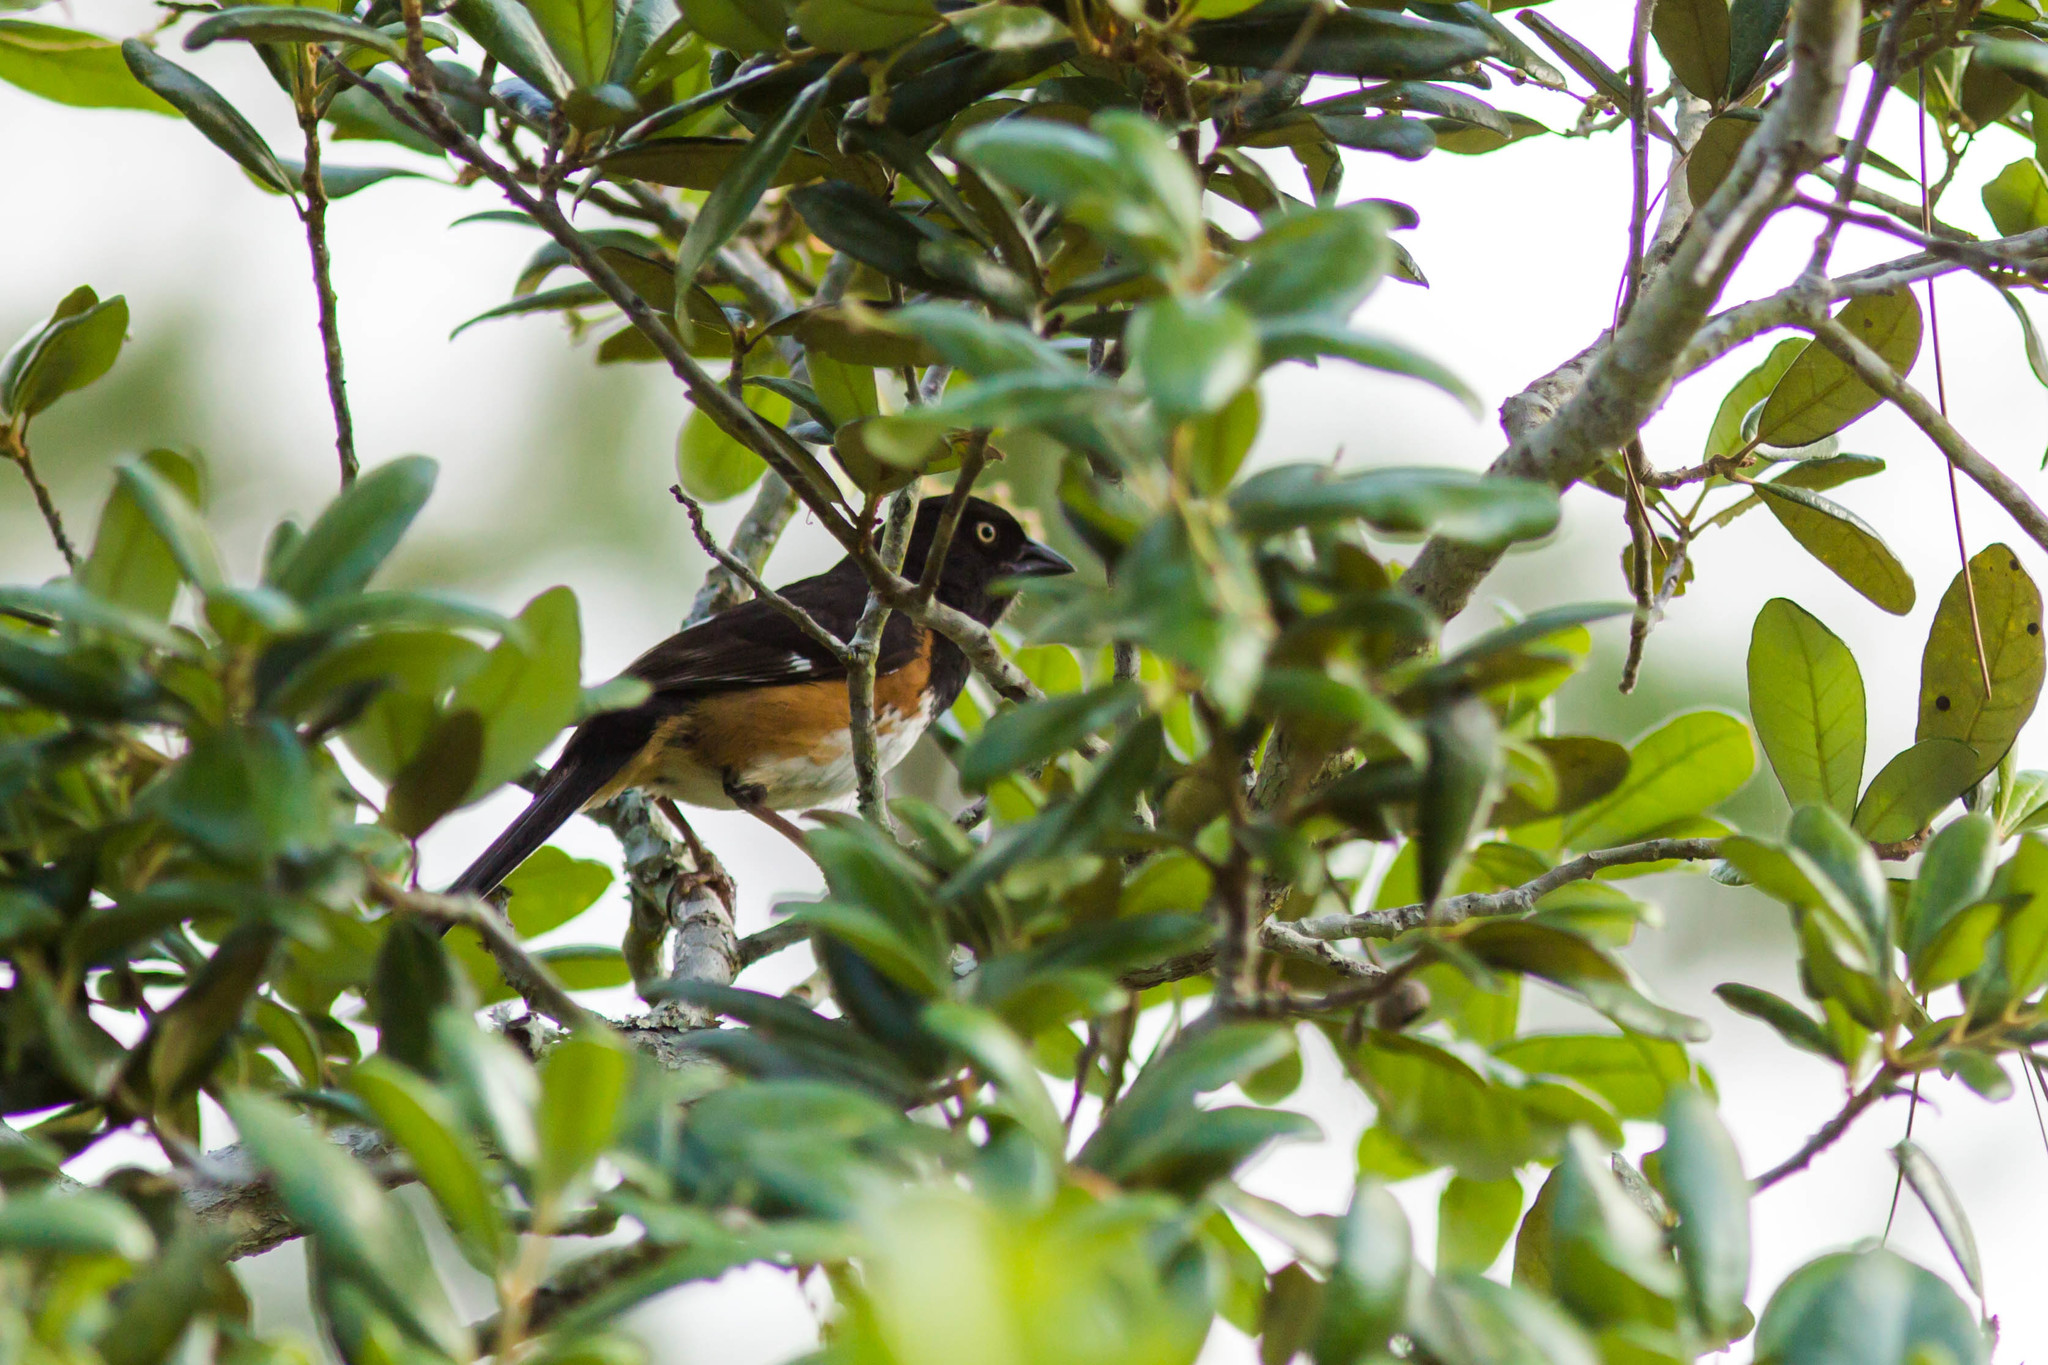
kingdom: Animalia
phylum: Chordata
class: Aves
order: Passeriformes
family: Passerellidae
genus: Pipilo
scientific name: Pipilo erythrophthalmus
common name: Eastern towhee
